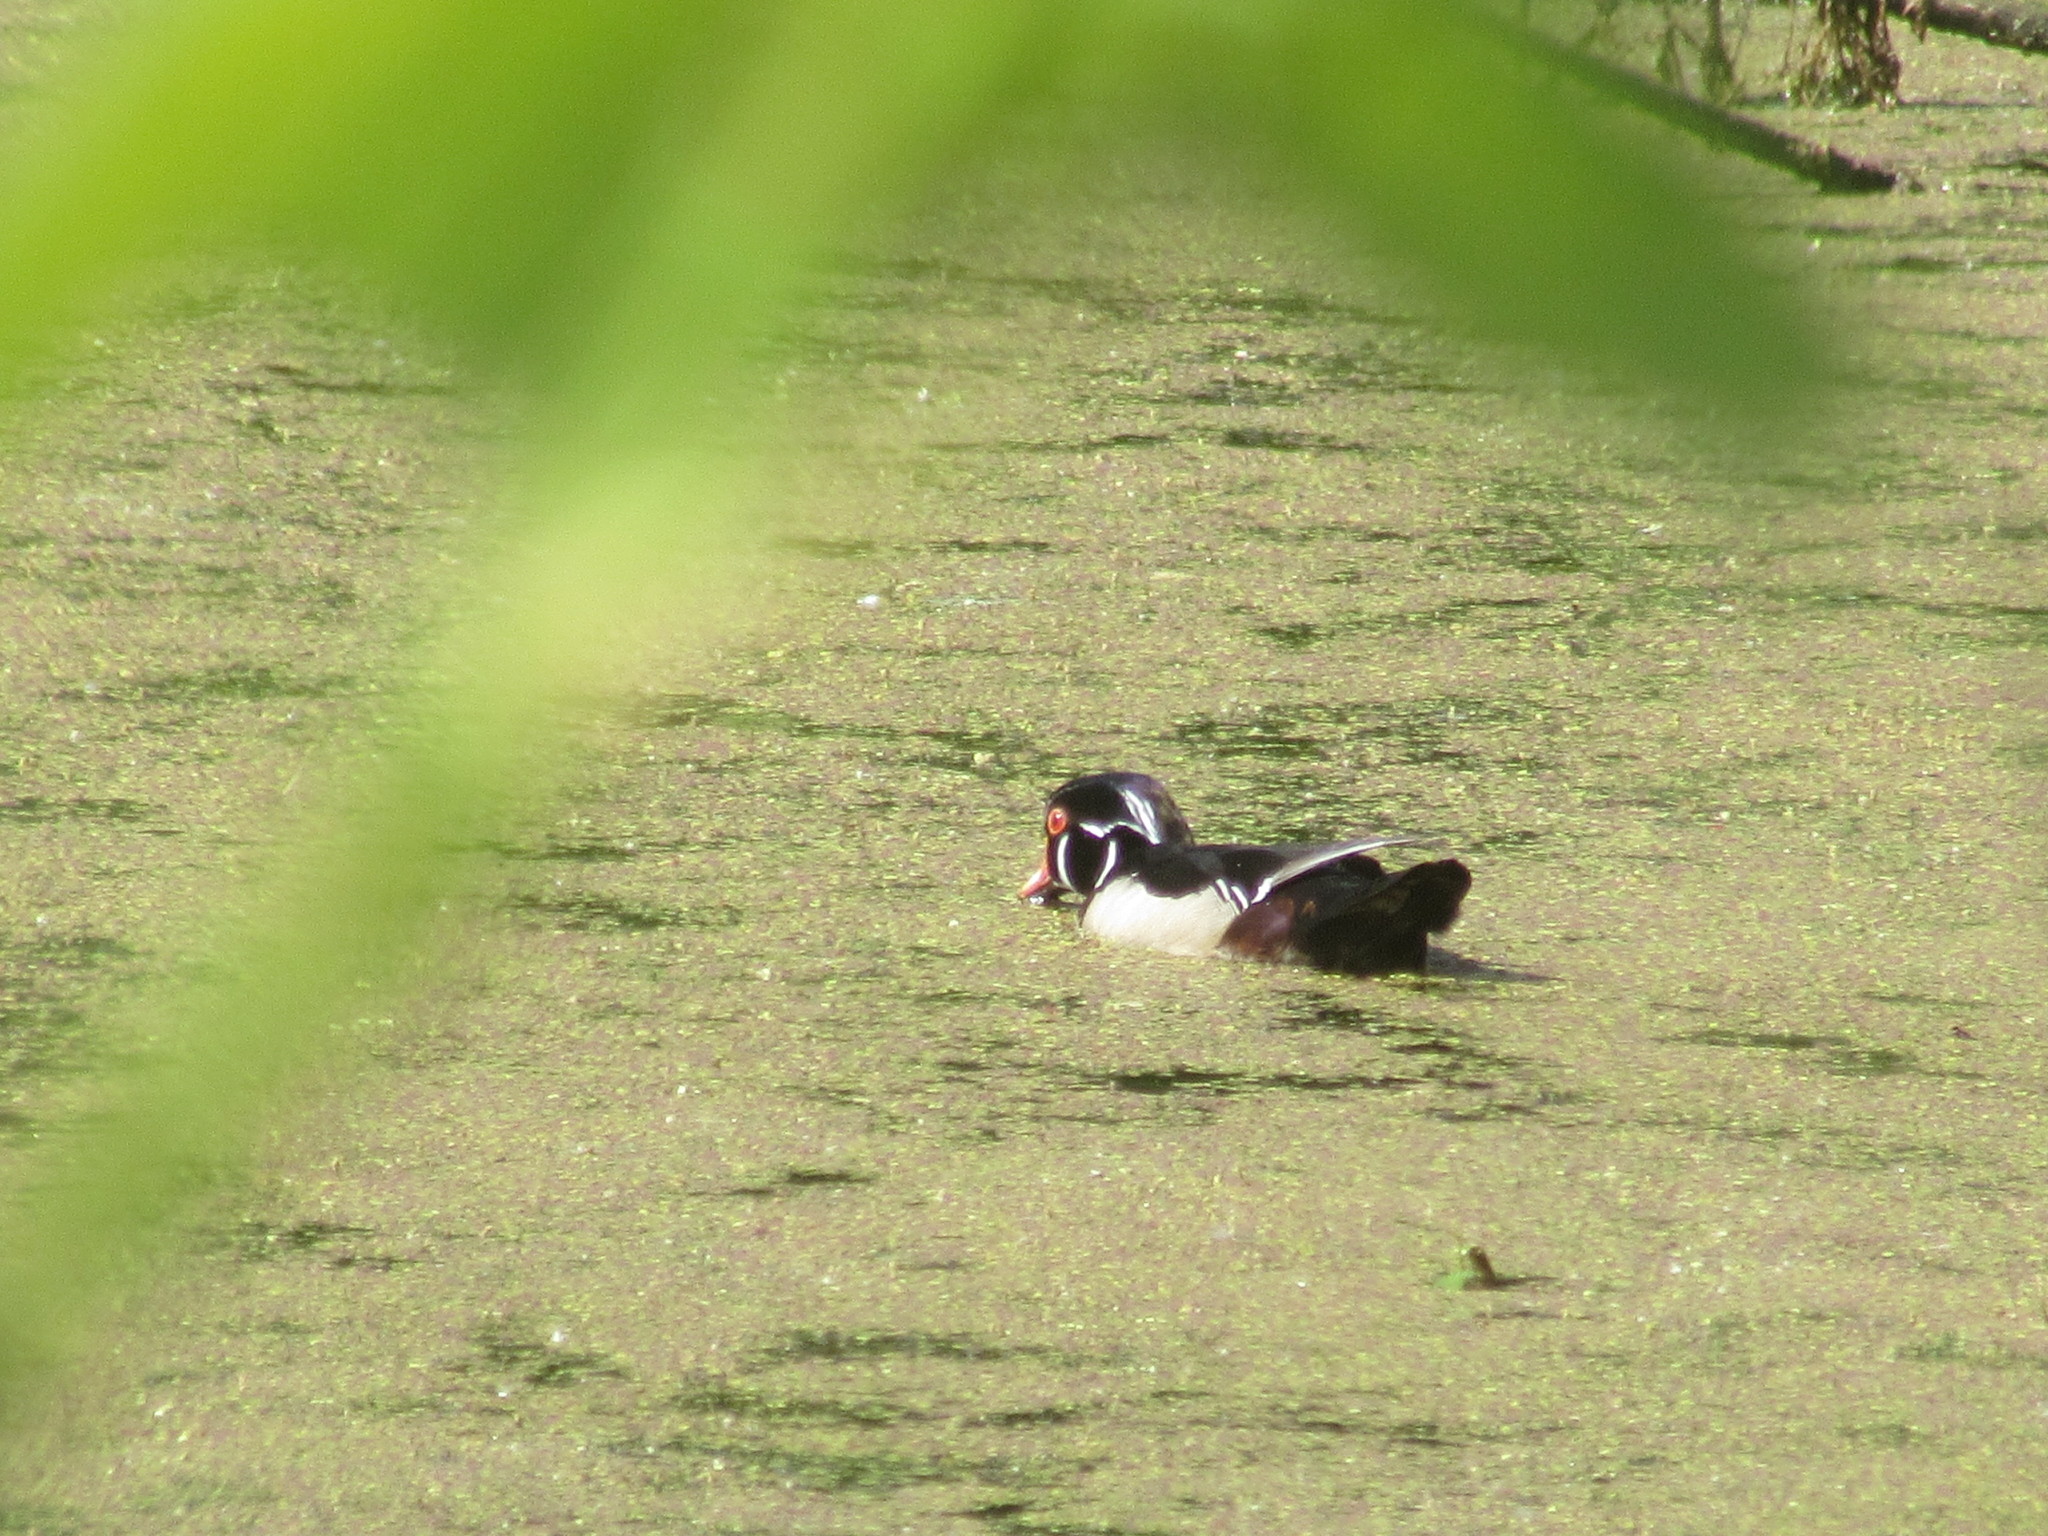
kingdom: Animalia
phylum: Chordata
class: Aves
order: Anseriformes
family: Anatidae
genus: Aix
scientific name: Aix sponsa
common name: Wood duck
